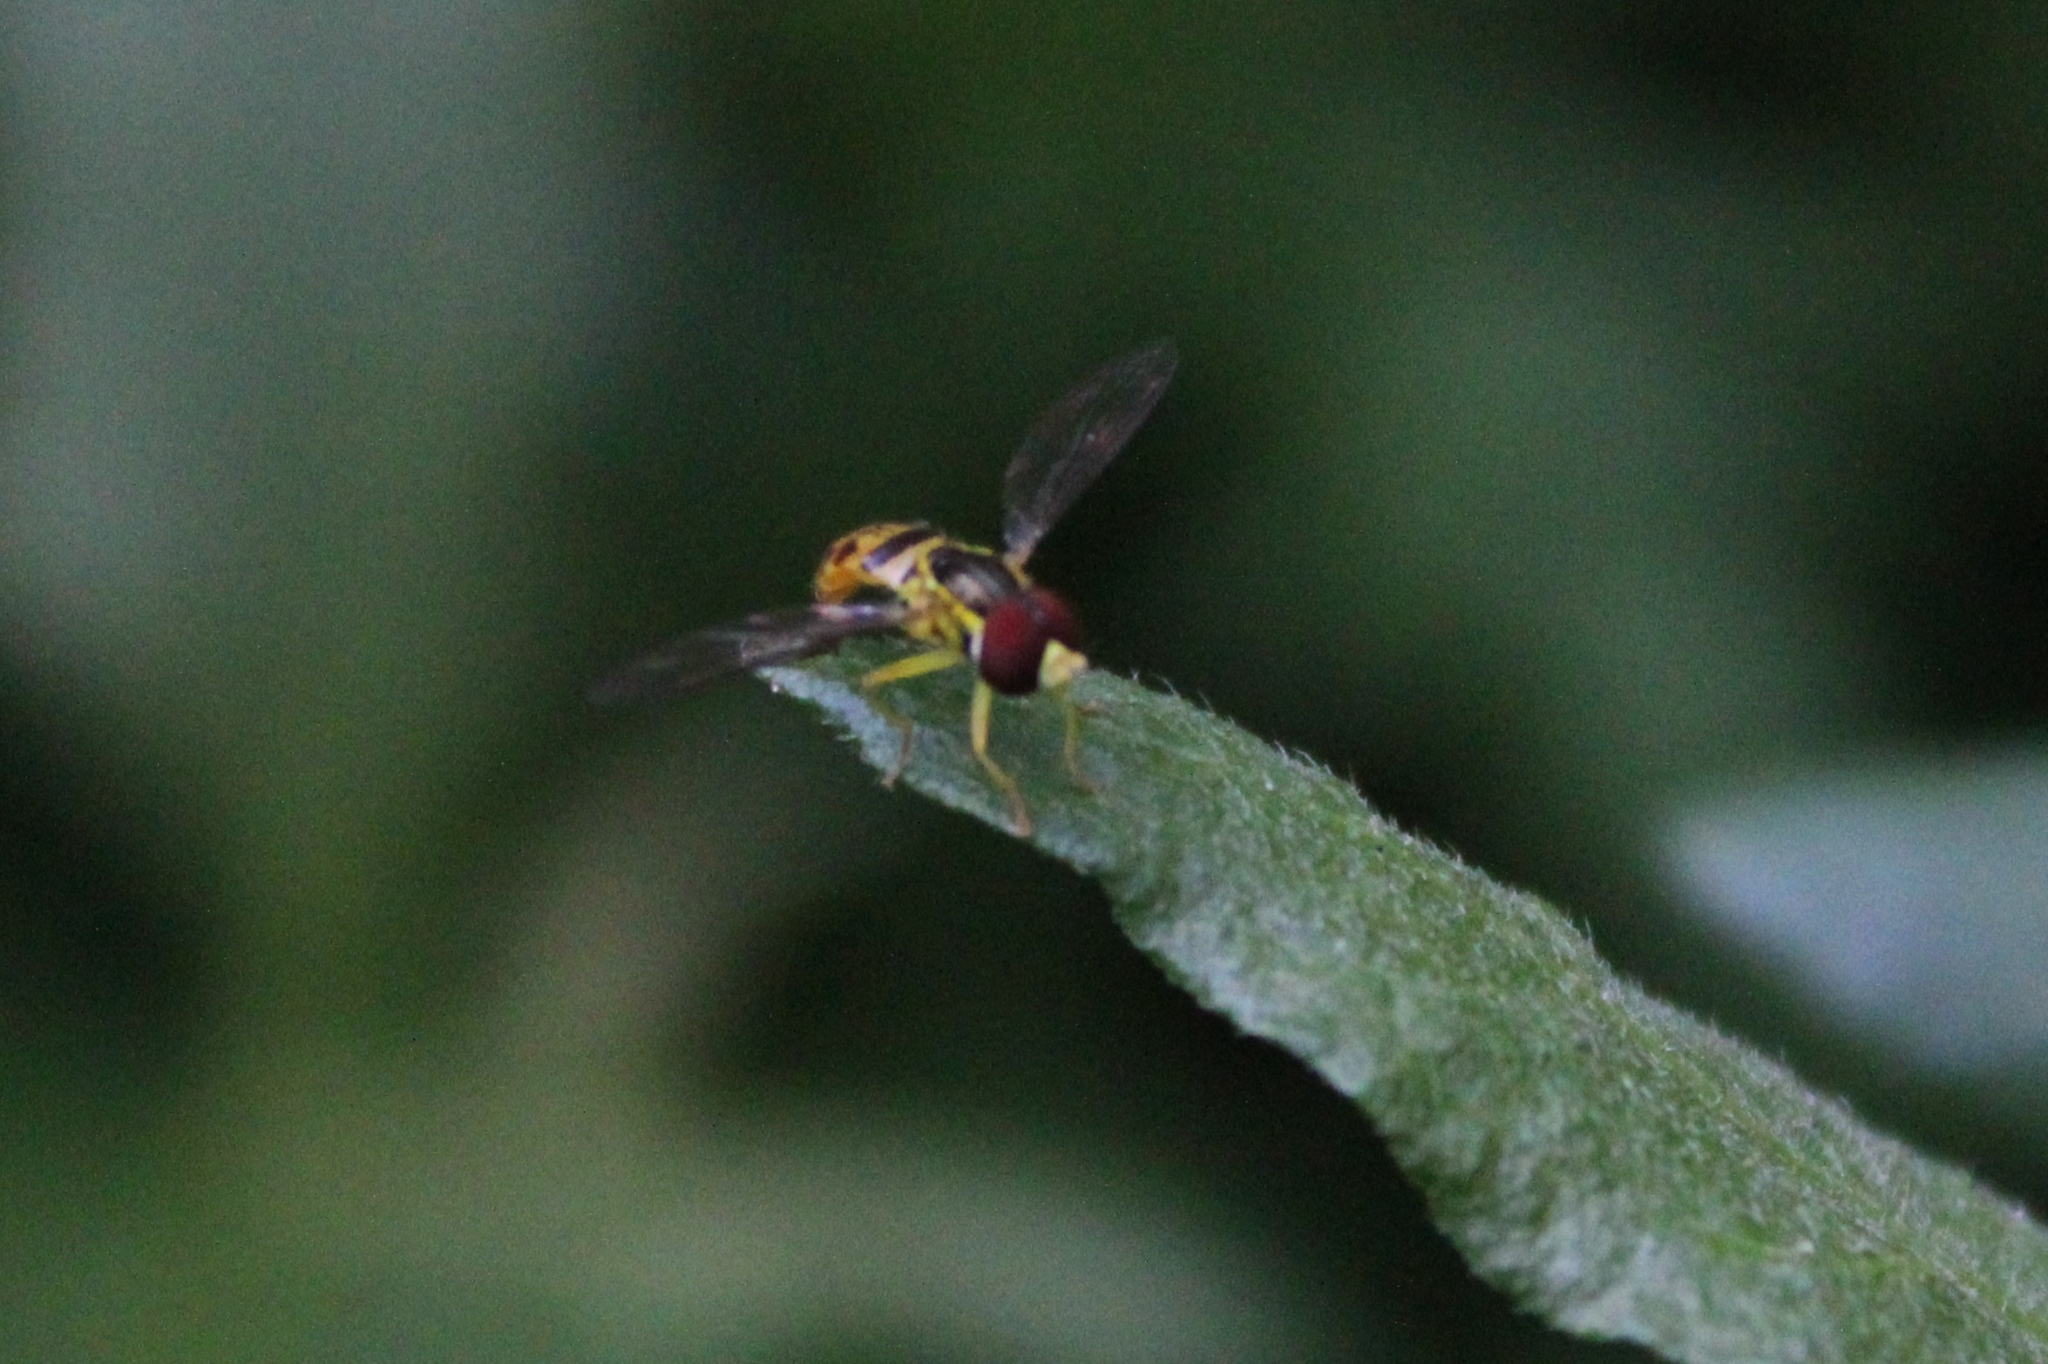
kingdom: Animalia
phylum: Arthropoda
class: Insecta
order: Diptera
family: Syrphidae
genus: Toxomerus
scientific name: Toxomerus geminatus
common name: Eastern calligrapher
